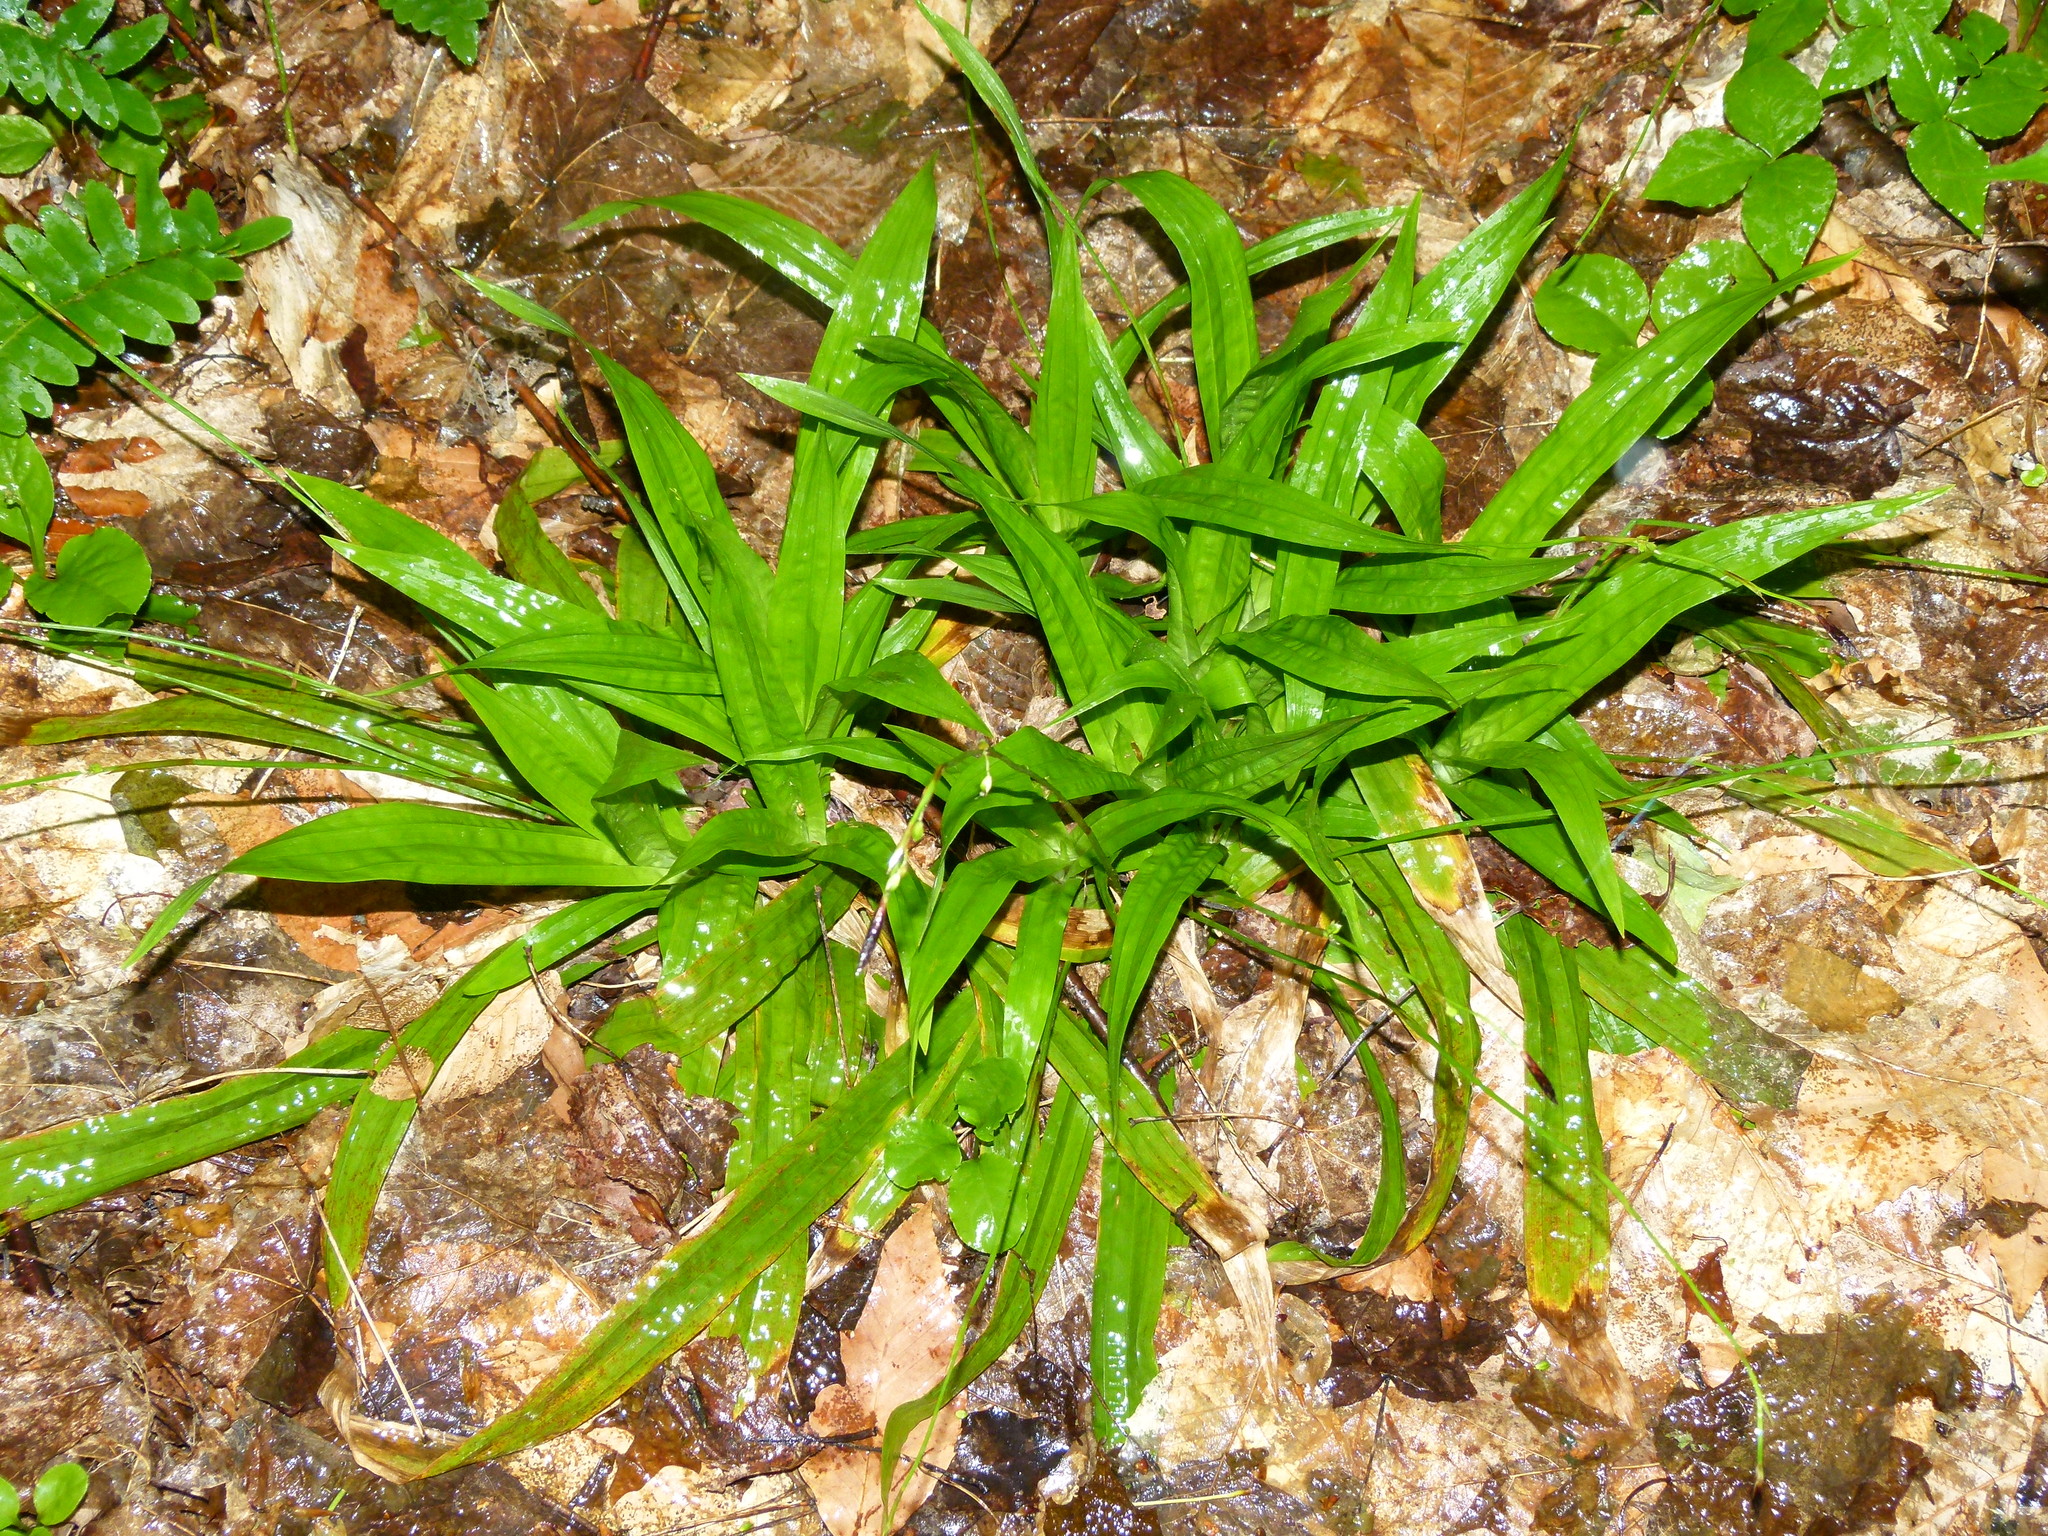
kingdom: Plantae
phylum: Tracheophyta
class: Liliopsida
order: Poales
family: Cyperaceae
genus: Carex
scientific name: Carex plantaginea
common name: Plantain-leaved sedge
